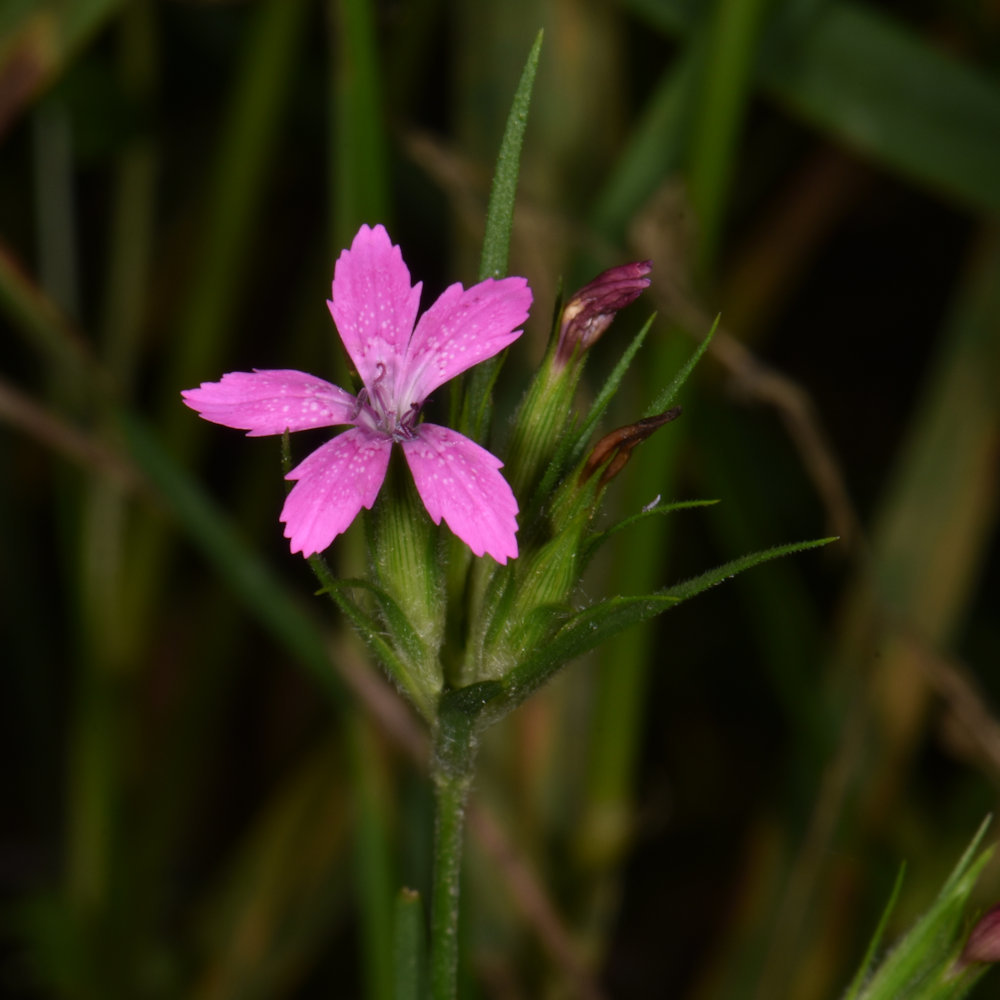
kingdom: Plantae
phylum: Tracheophyta
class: Magnoliopsida
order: Caryophyllales
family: Caryophyllaceae
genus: Dianthus
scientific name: Dianthus armeria
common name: Deptford pink
